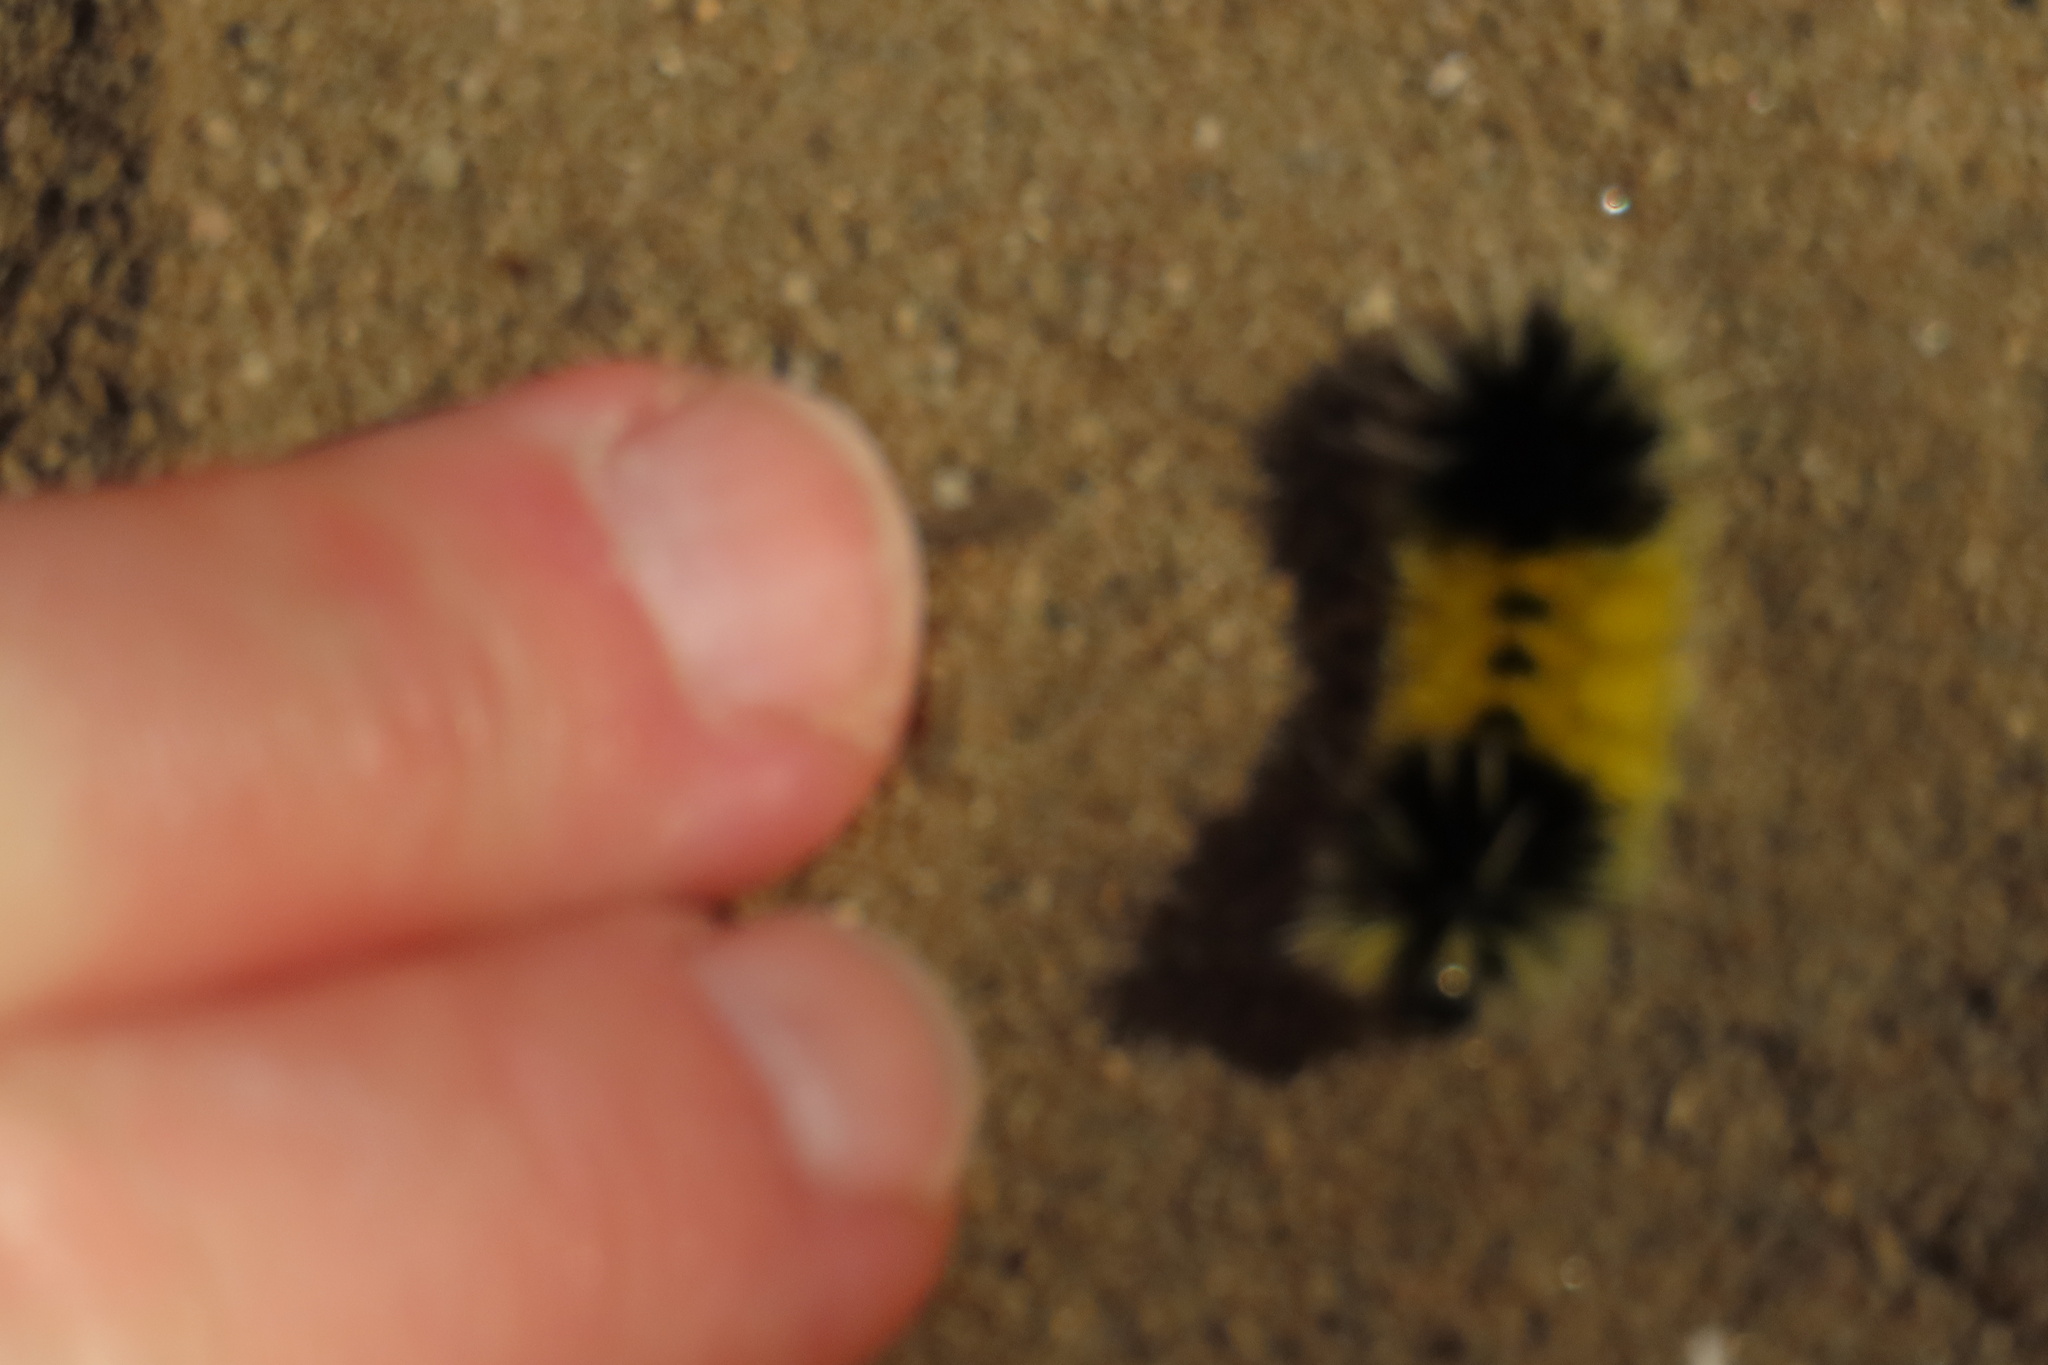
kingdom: Animalia
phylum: Arthropoda
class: Insecta
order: Lepidoptera
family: Erebidae
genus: Lophocampa
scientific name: Lophocampa maculata
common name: Spotted tussock moth
